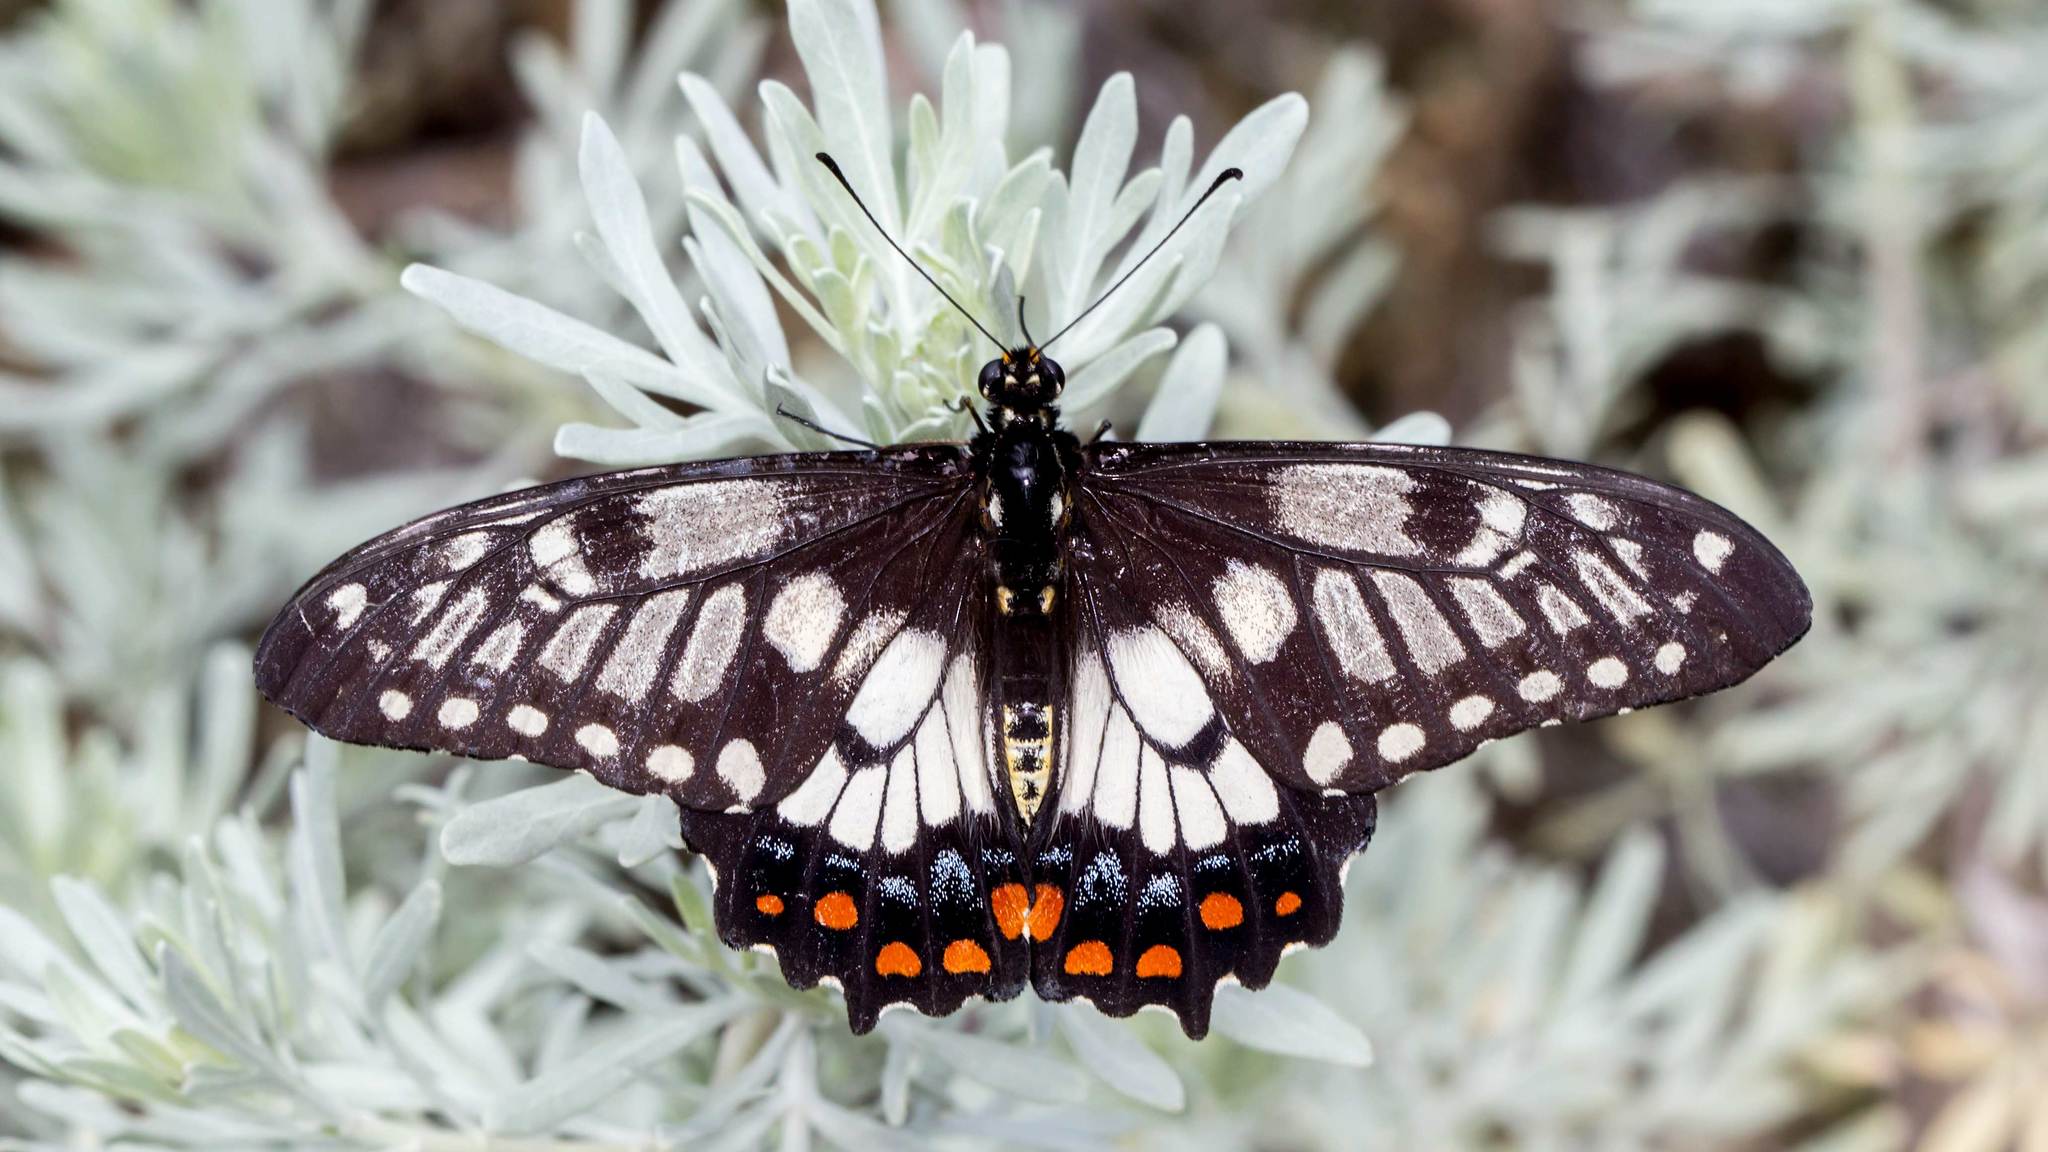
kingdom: Animalia
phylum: Arthropoda
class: Insecta
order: Lepidoptera
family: Papilionidae
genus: Papilio
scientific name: Papilio anactus
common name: Dingy swallowtail
